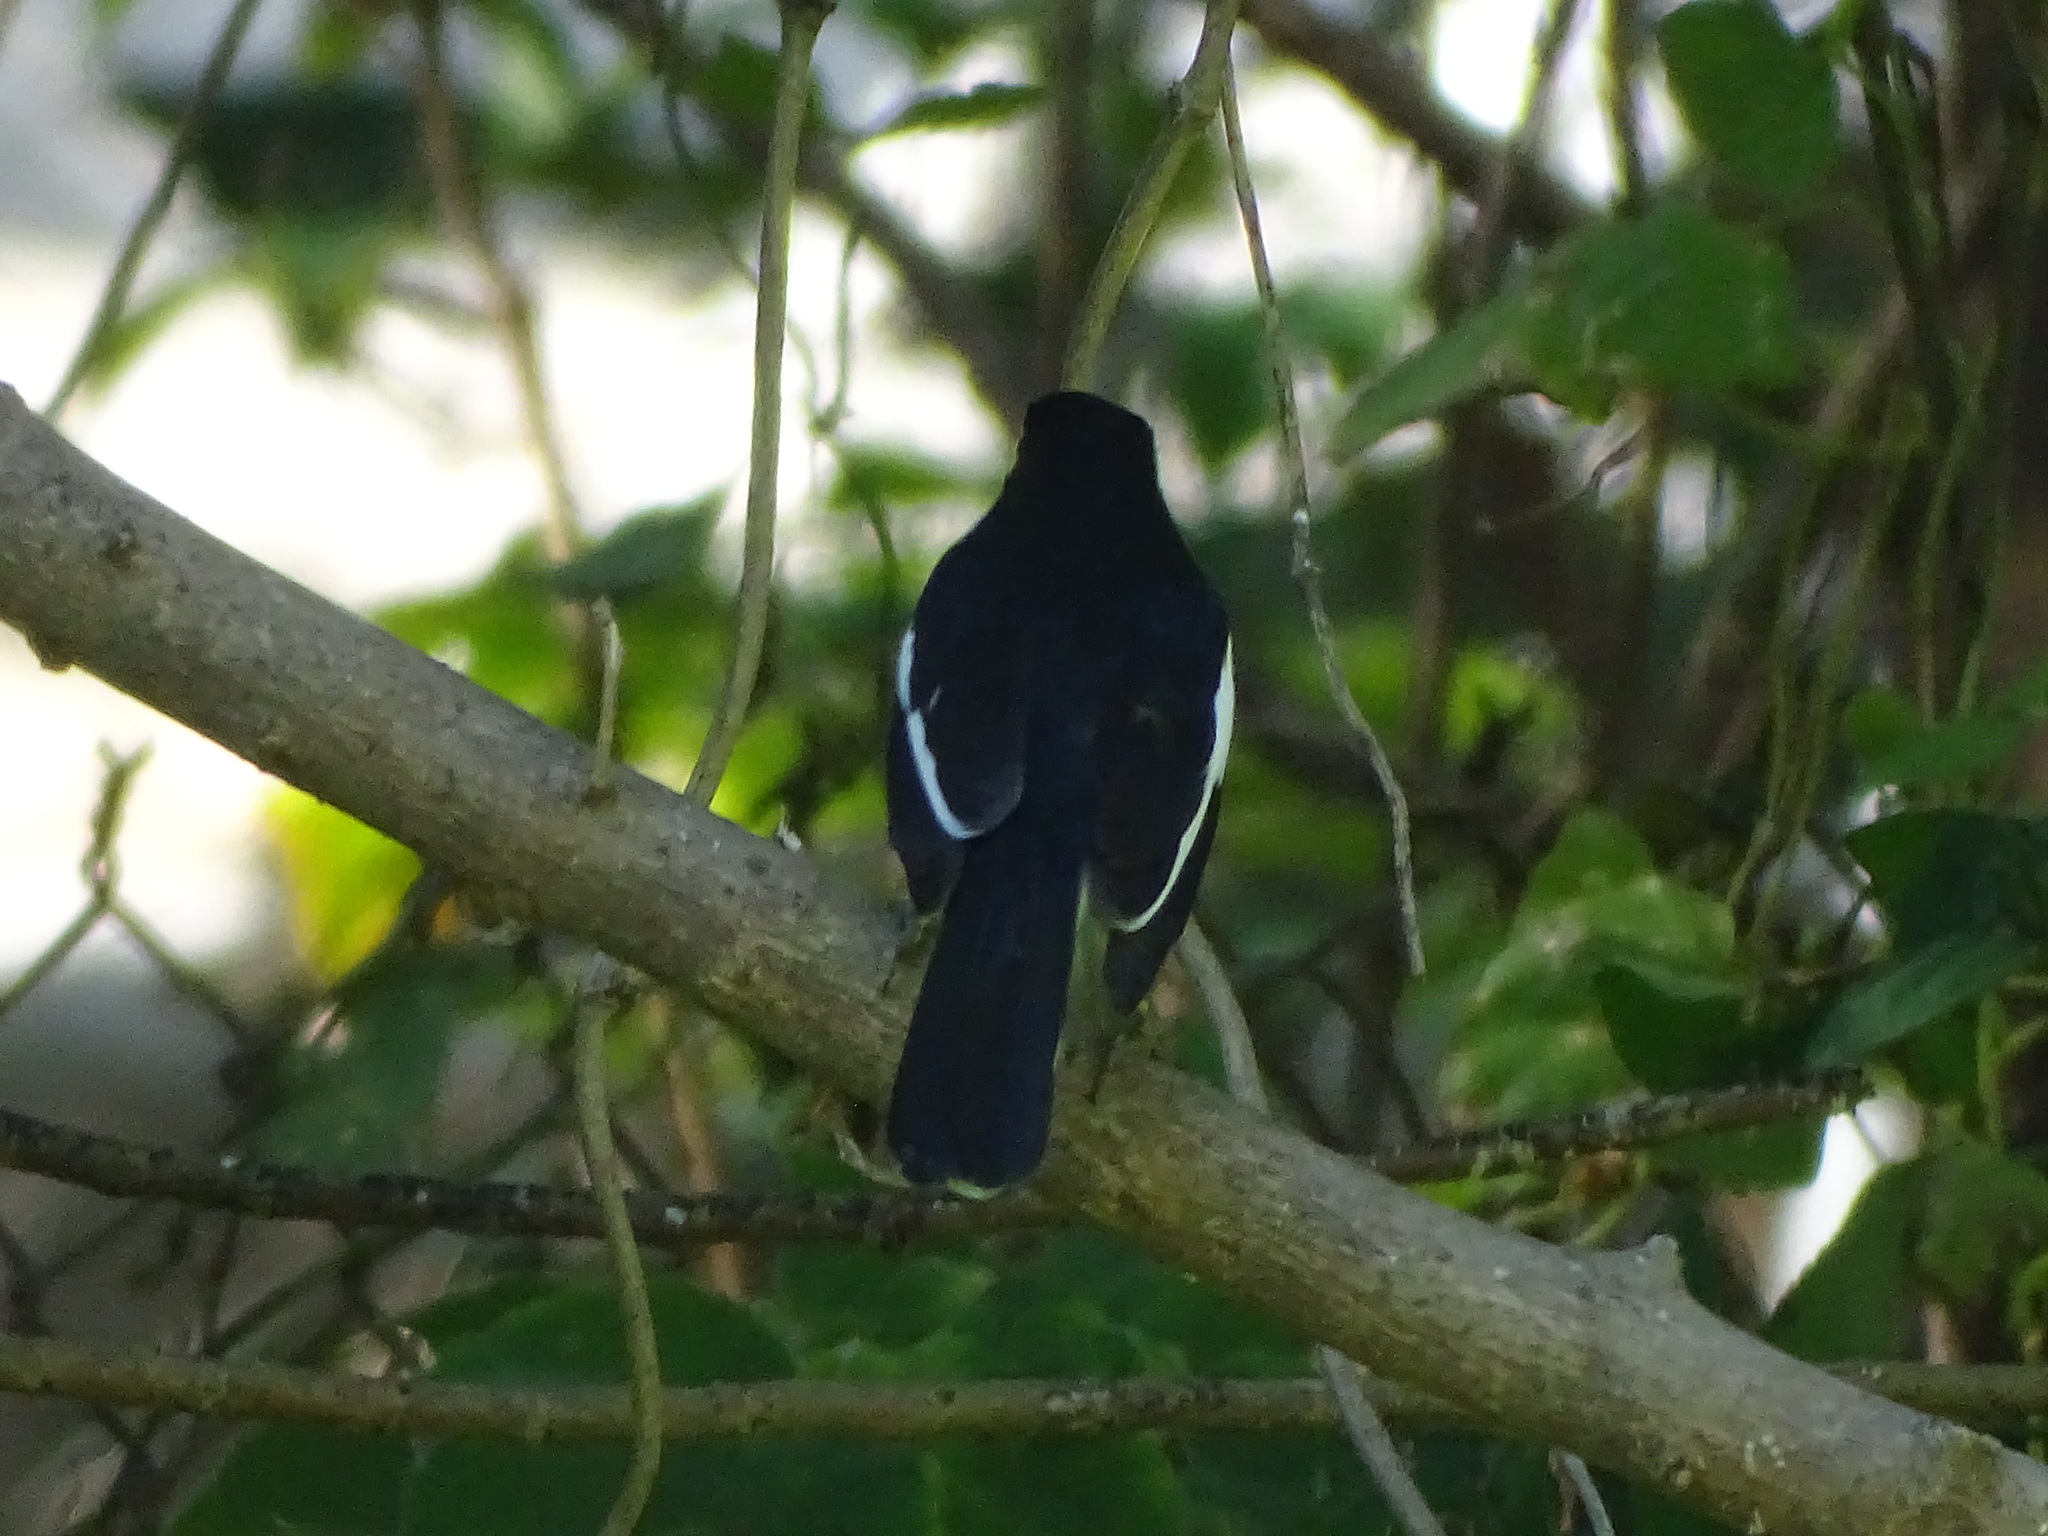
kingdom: Animalia
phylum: Chordata
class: Aves
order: Passeriformes
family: Muscicapidae
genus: Copsychus
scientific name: Copsychus saularis
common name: Oriental magpie-robin
